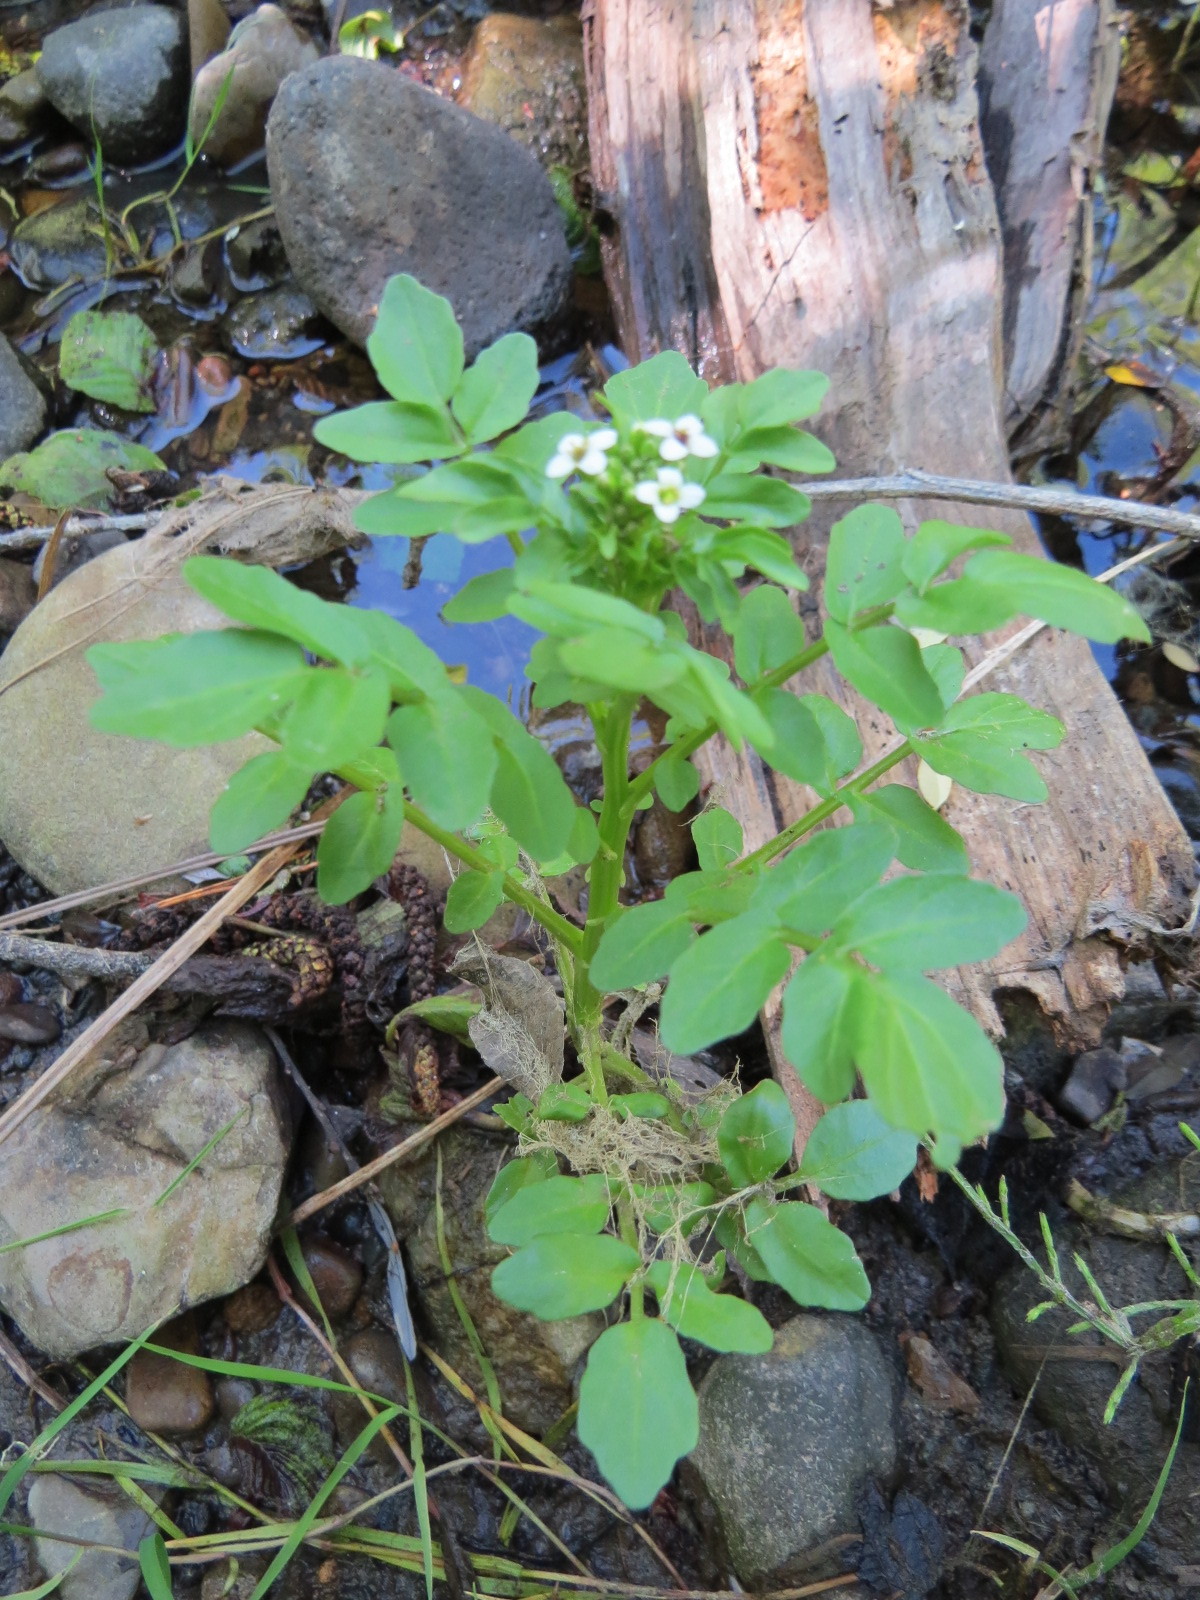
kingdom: Plantae
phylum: Tracheophyta
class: Magnoliopsida
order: Brassicales
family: Brassicaceae
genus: Nasturtium
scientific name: Nasturtium officinale
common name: Watercress
